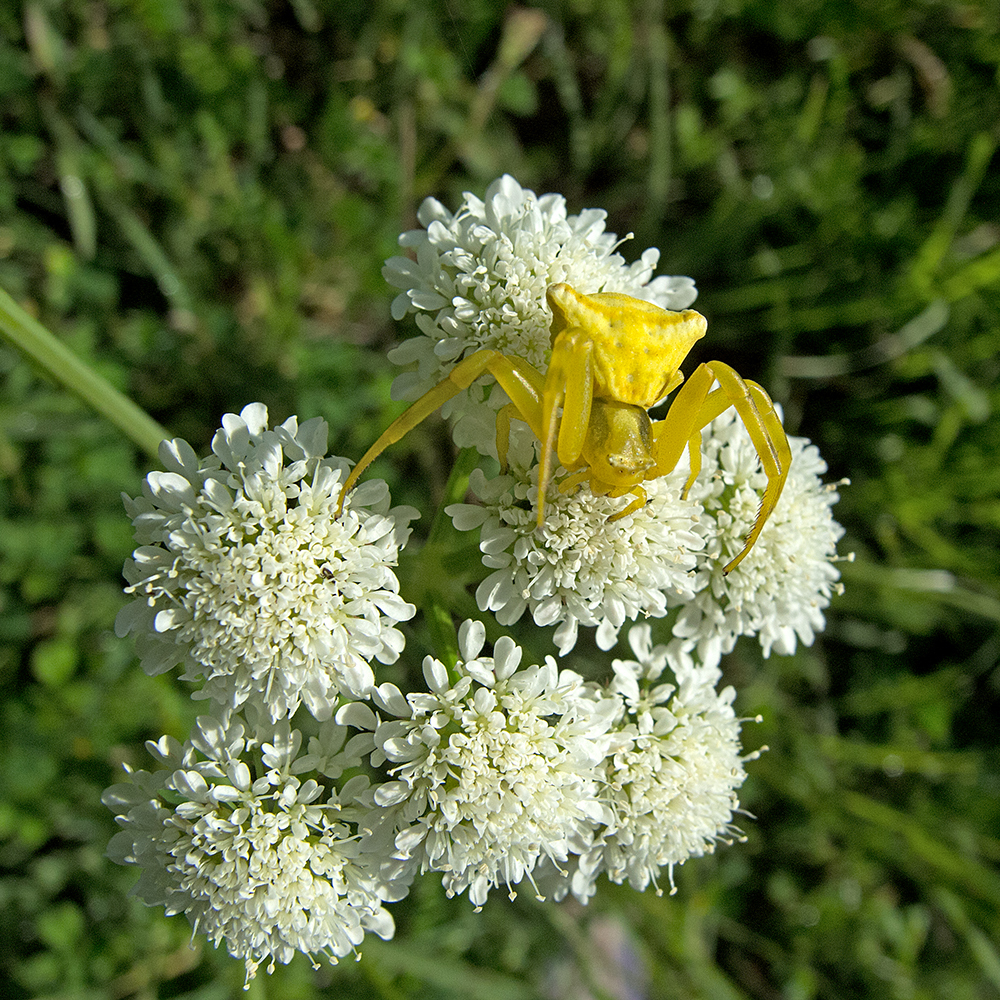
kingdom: Animalia
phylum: Arthropoda
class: Arachnida
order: Araneae
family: Thomisidae
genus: Thomisus
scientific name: Thomisus onustus
